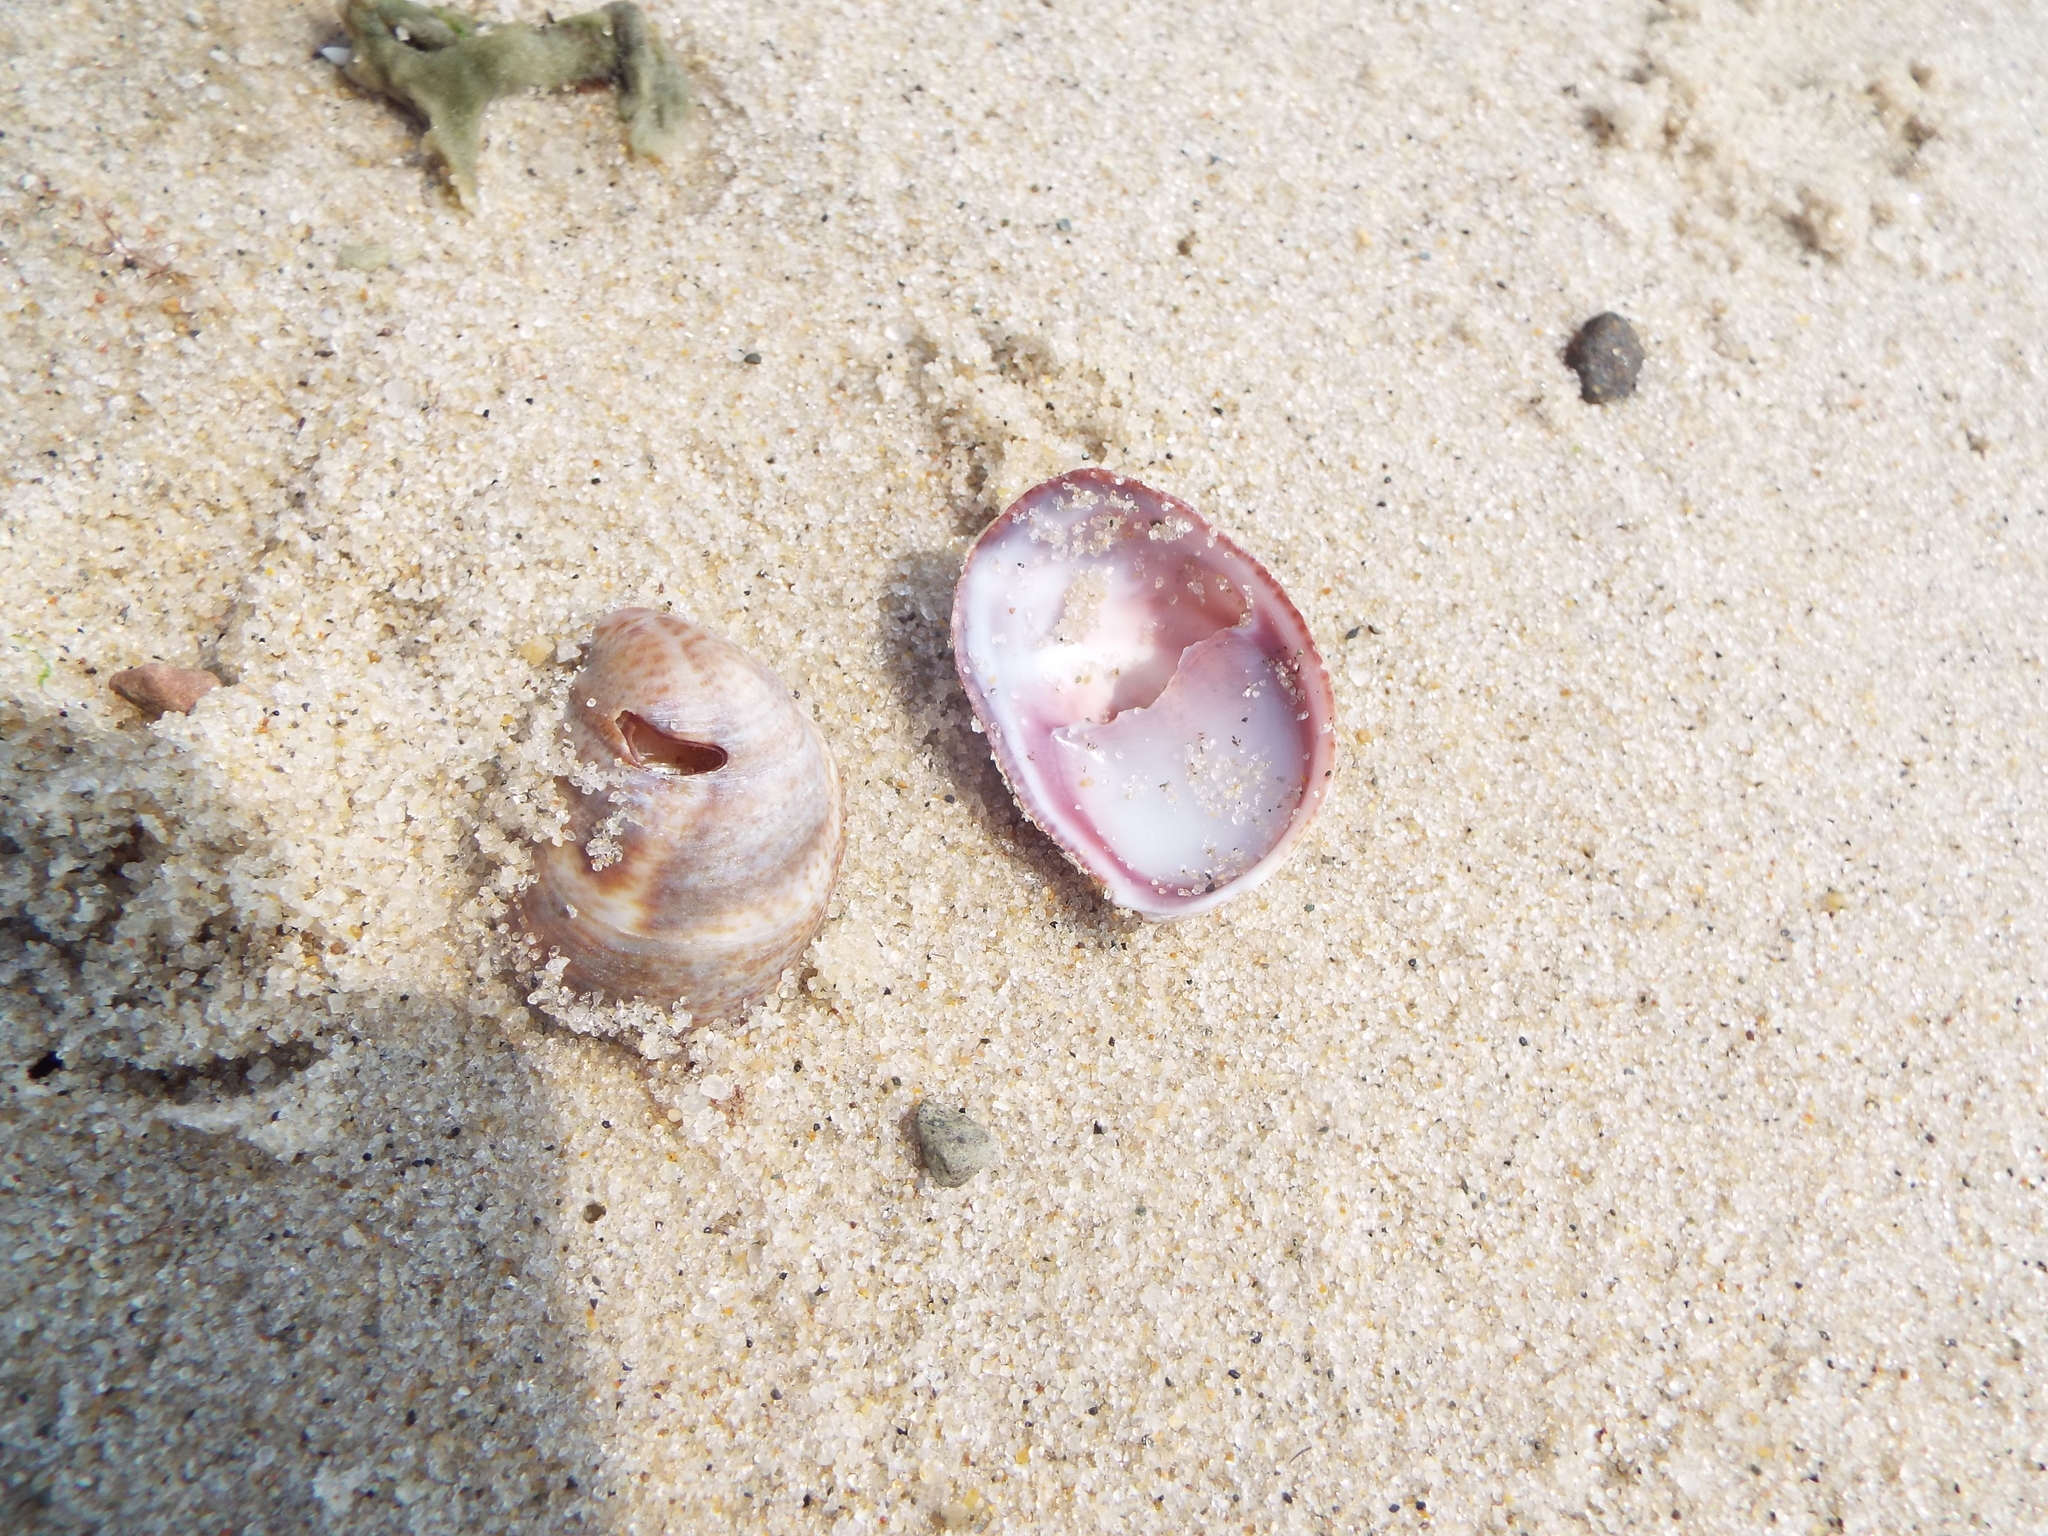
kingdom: Animalia
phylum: Mollusca
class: Gastropoda
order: Littorinimorpha
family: Calyptraeidae
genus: Crepidula
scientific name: Crepidula fornicata
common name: Slipper limpet
